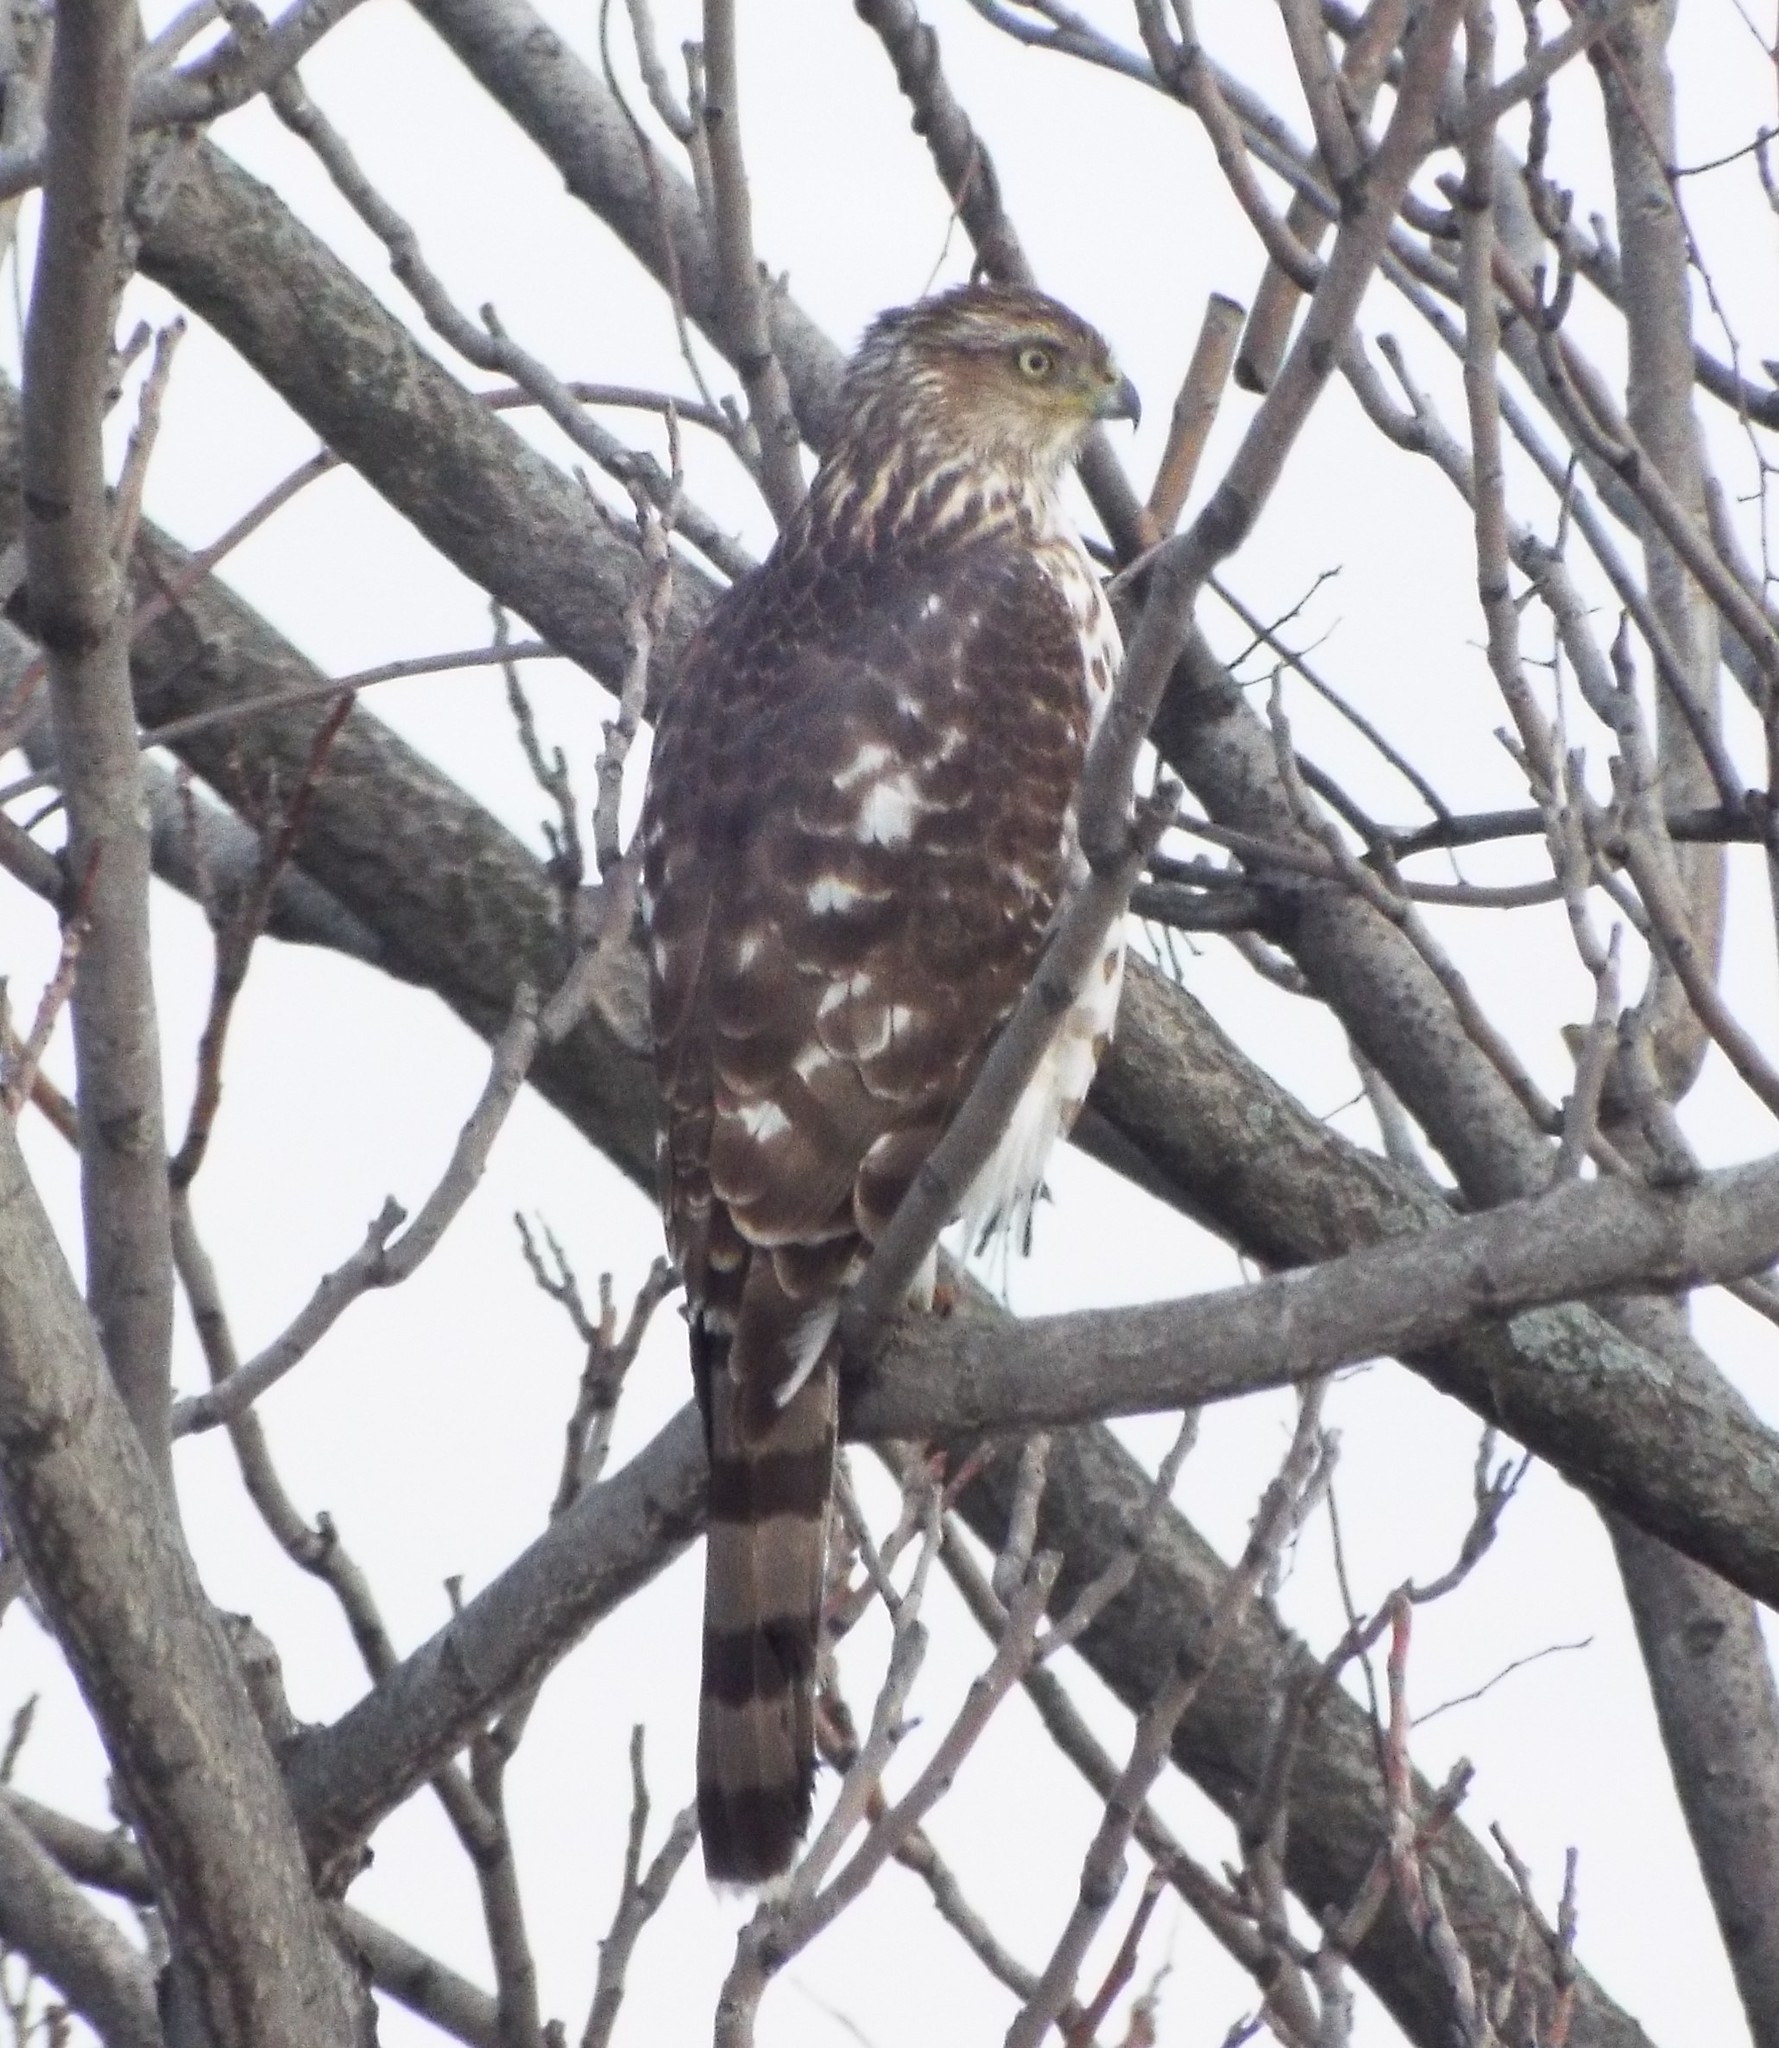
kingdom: Animalia
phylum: Chordata
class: Aves
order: Accipitriformes
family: Accipitridae
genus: Accipiter
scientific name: Accipiter cooperii
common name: Cooper's hawk
